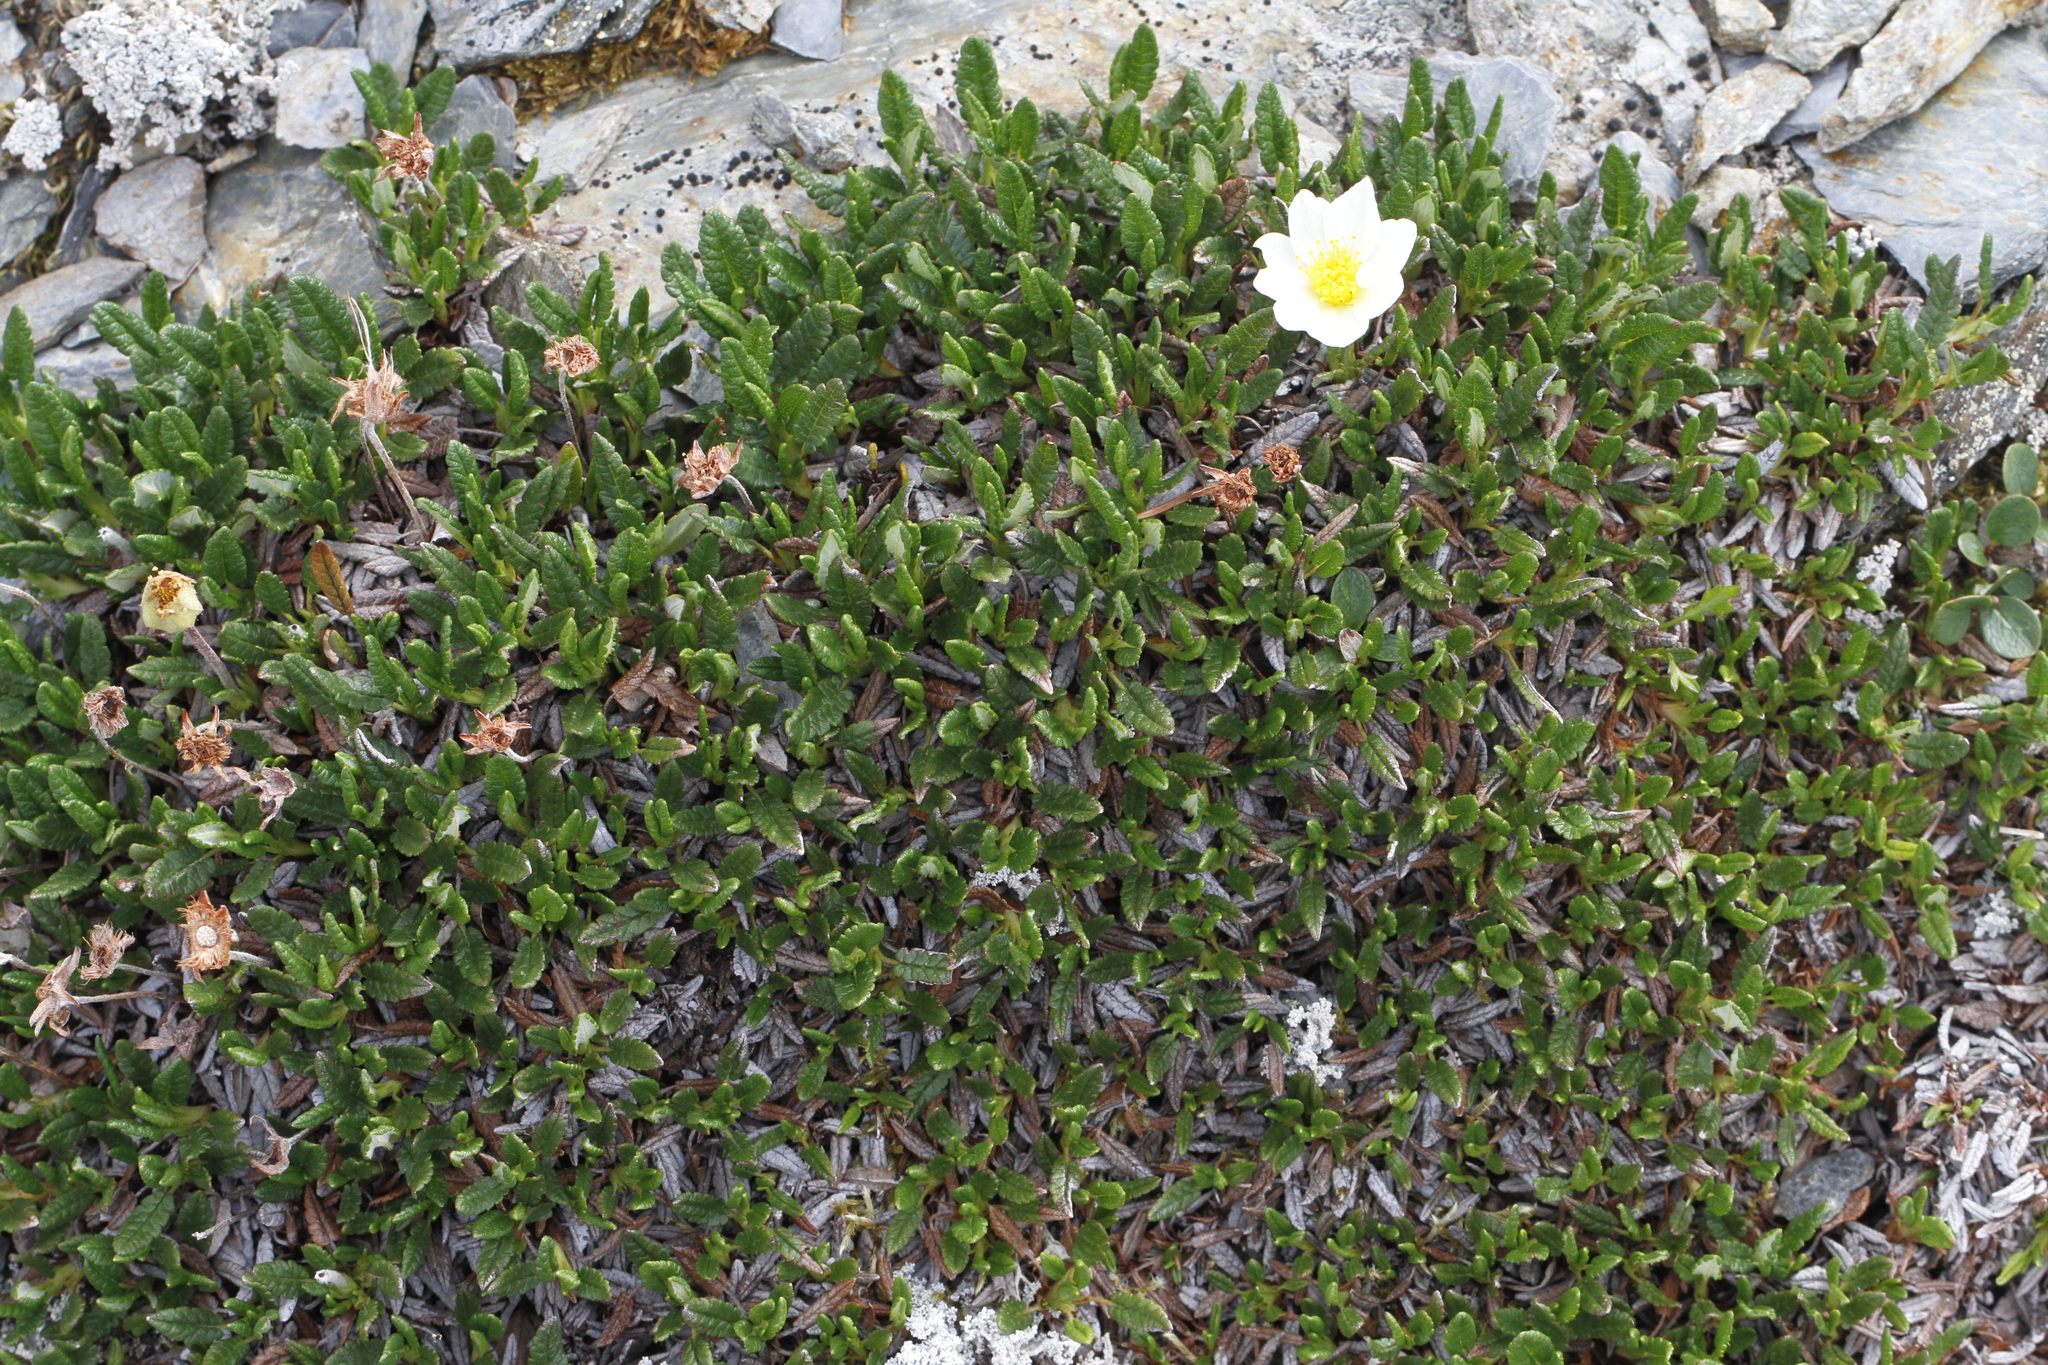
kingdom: Plantae
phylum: Tracheophyta
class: Magnoliopsida
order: Rosales
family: Rosaceae
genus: Dryas
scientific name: Dryas octopetala
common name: Eight-petal mountain-avens
